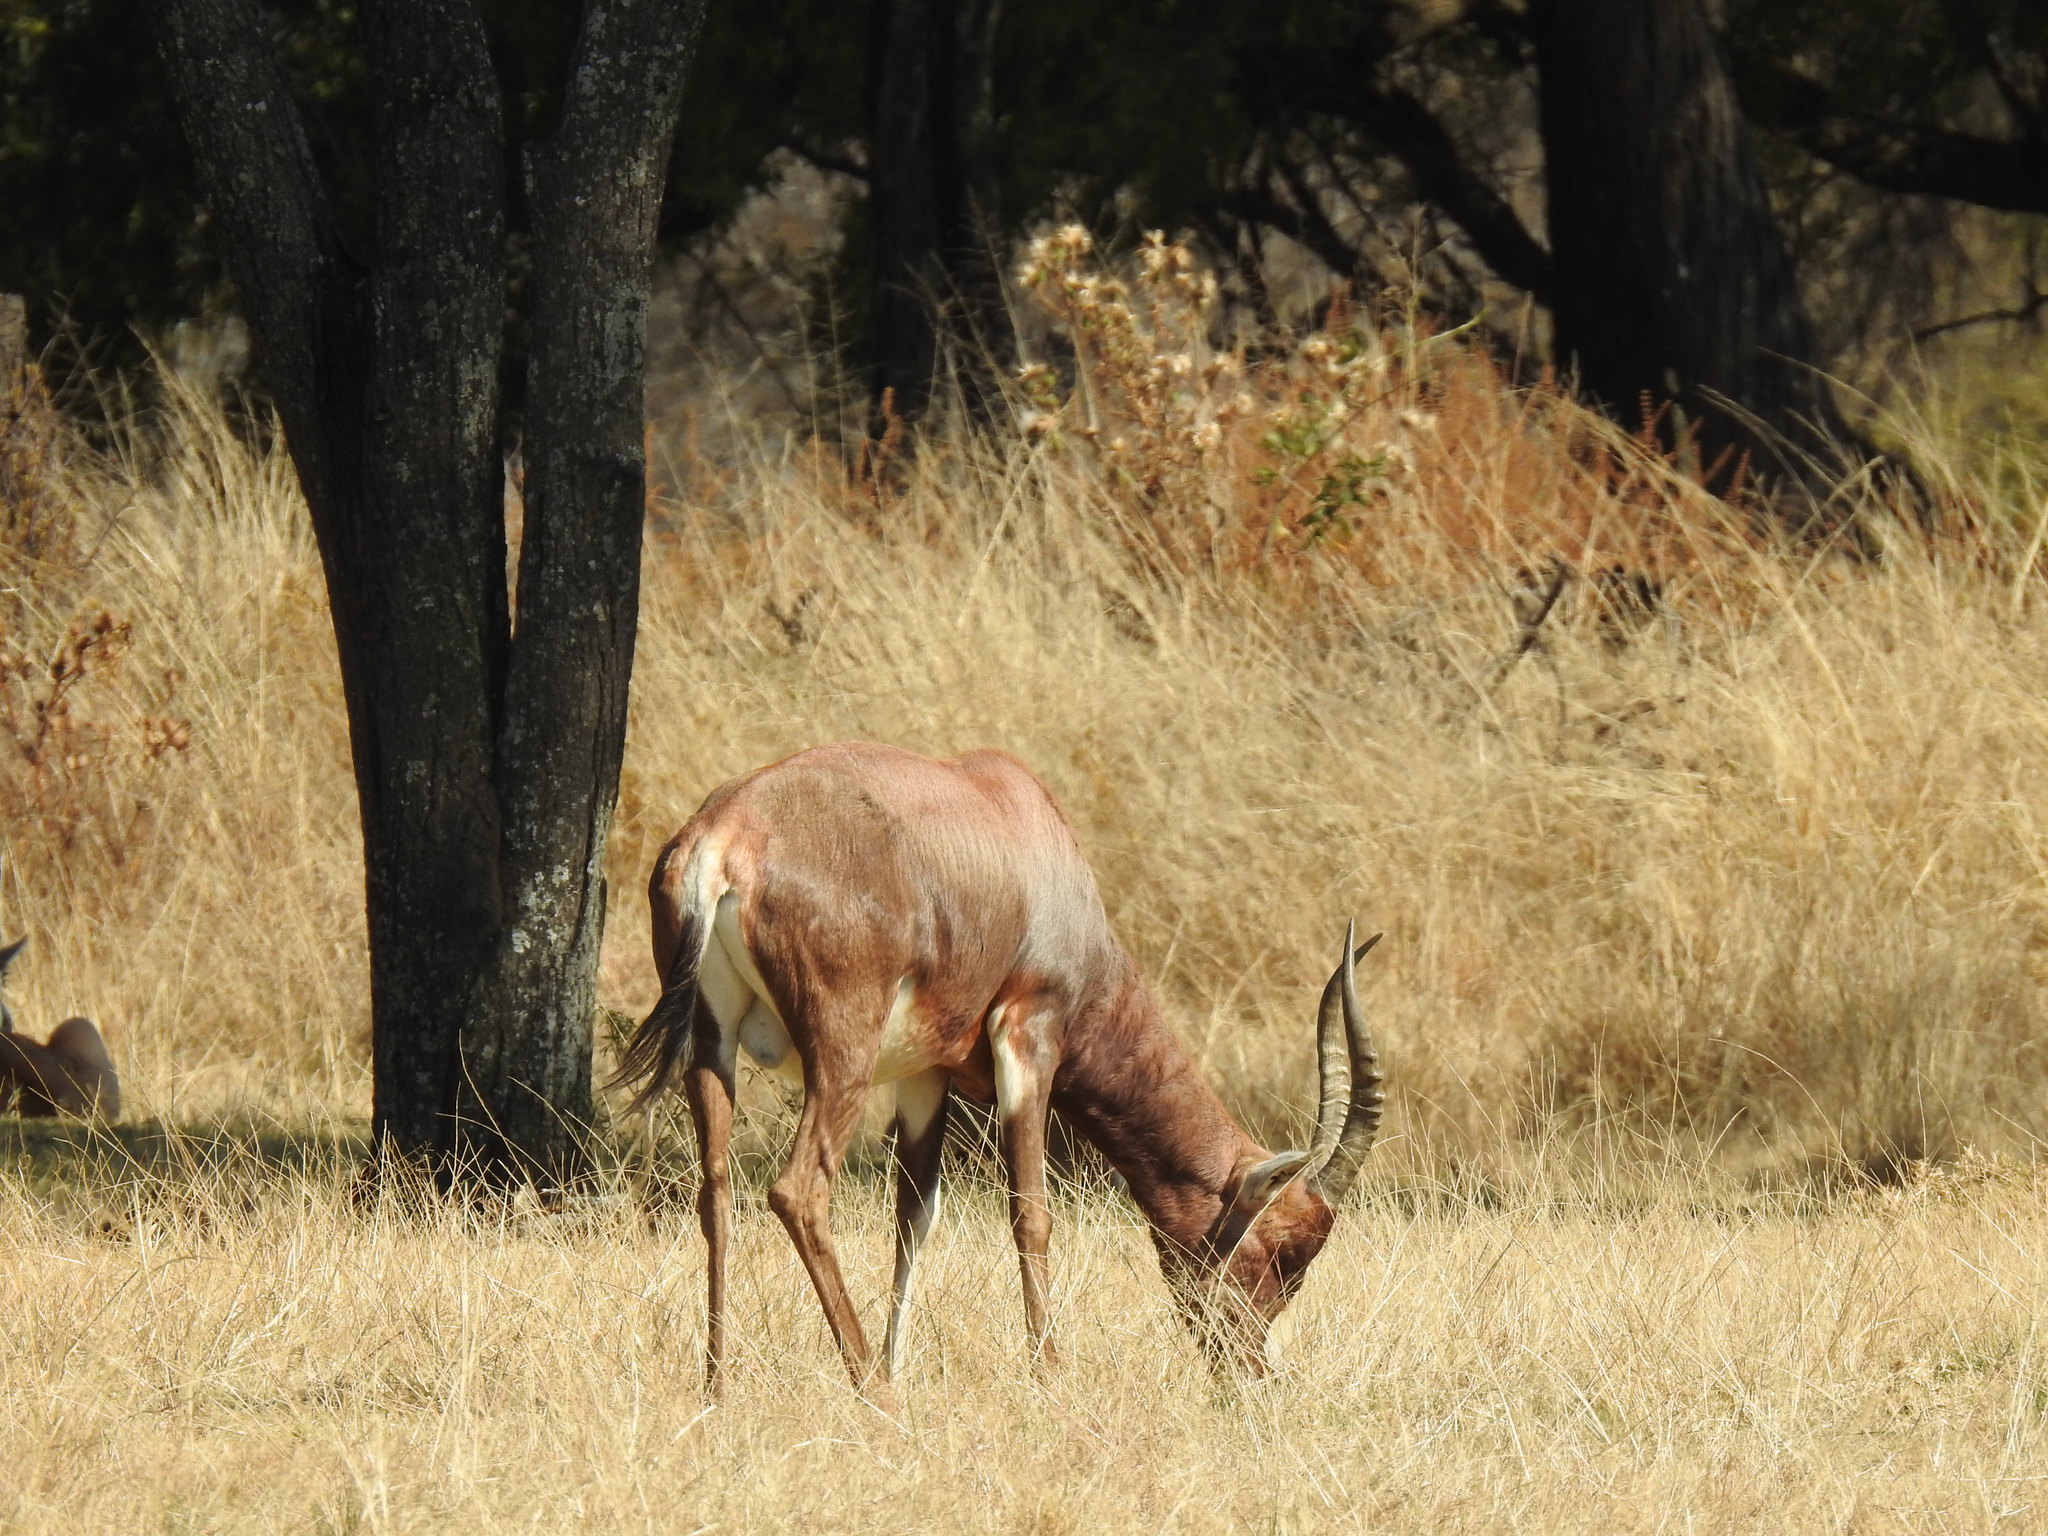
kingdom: Animalia
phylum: Chordata
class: Mammalia
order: Artiodactyla
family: Bovidae
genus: Damaliscus
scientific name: Damaliscus pygargus
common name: Bontebok
